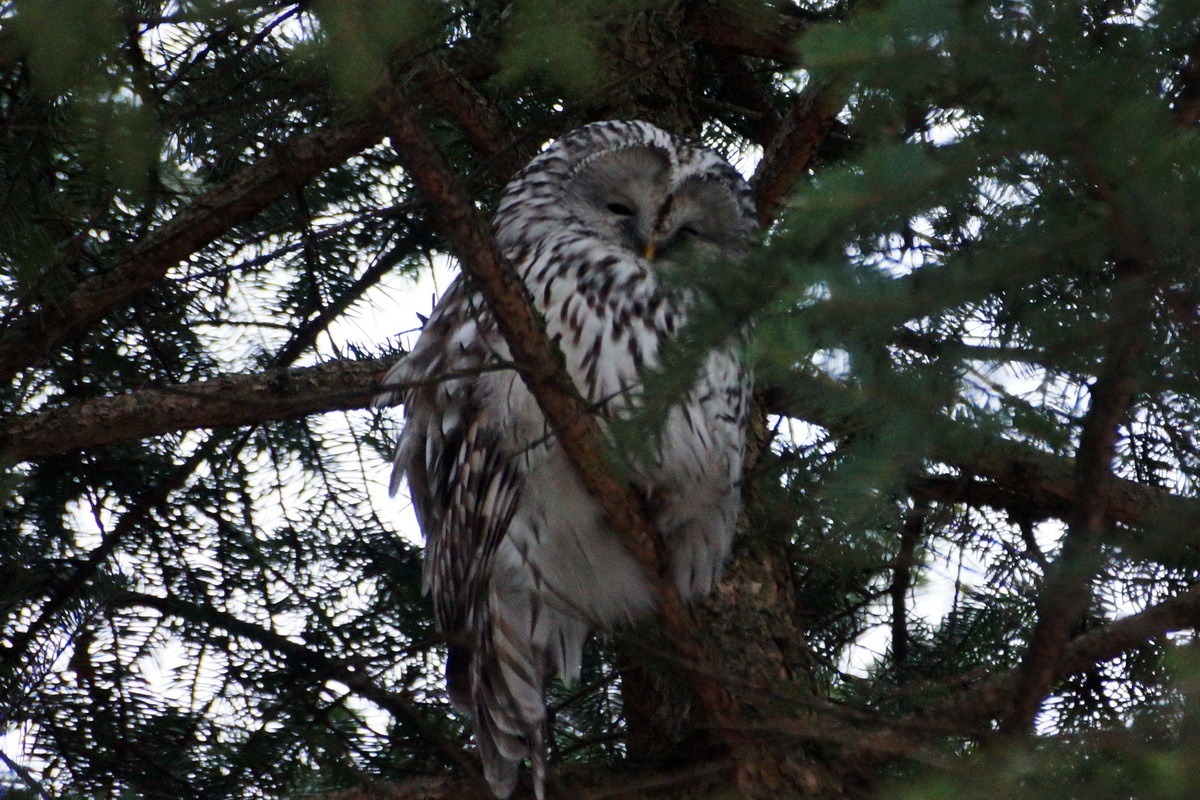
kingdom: Animalia
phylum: Chordata
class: Aves
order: Strigiformes
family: Strigidae
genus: Strix
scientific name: Strix uralensis
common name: Ural owl
